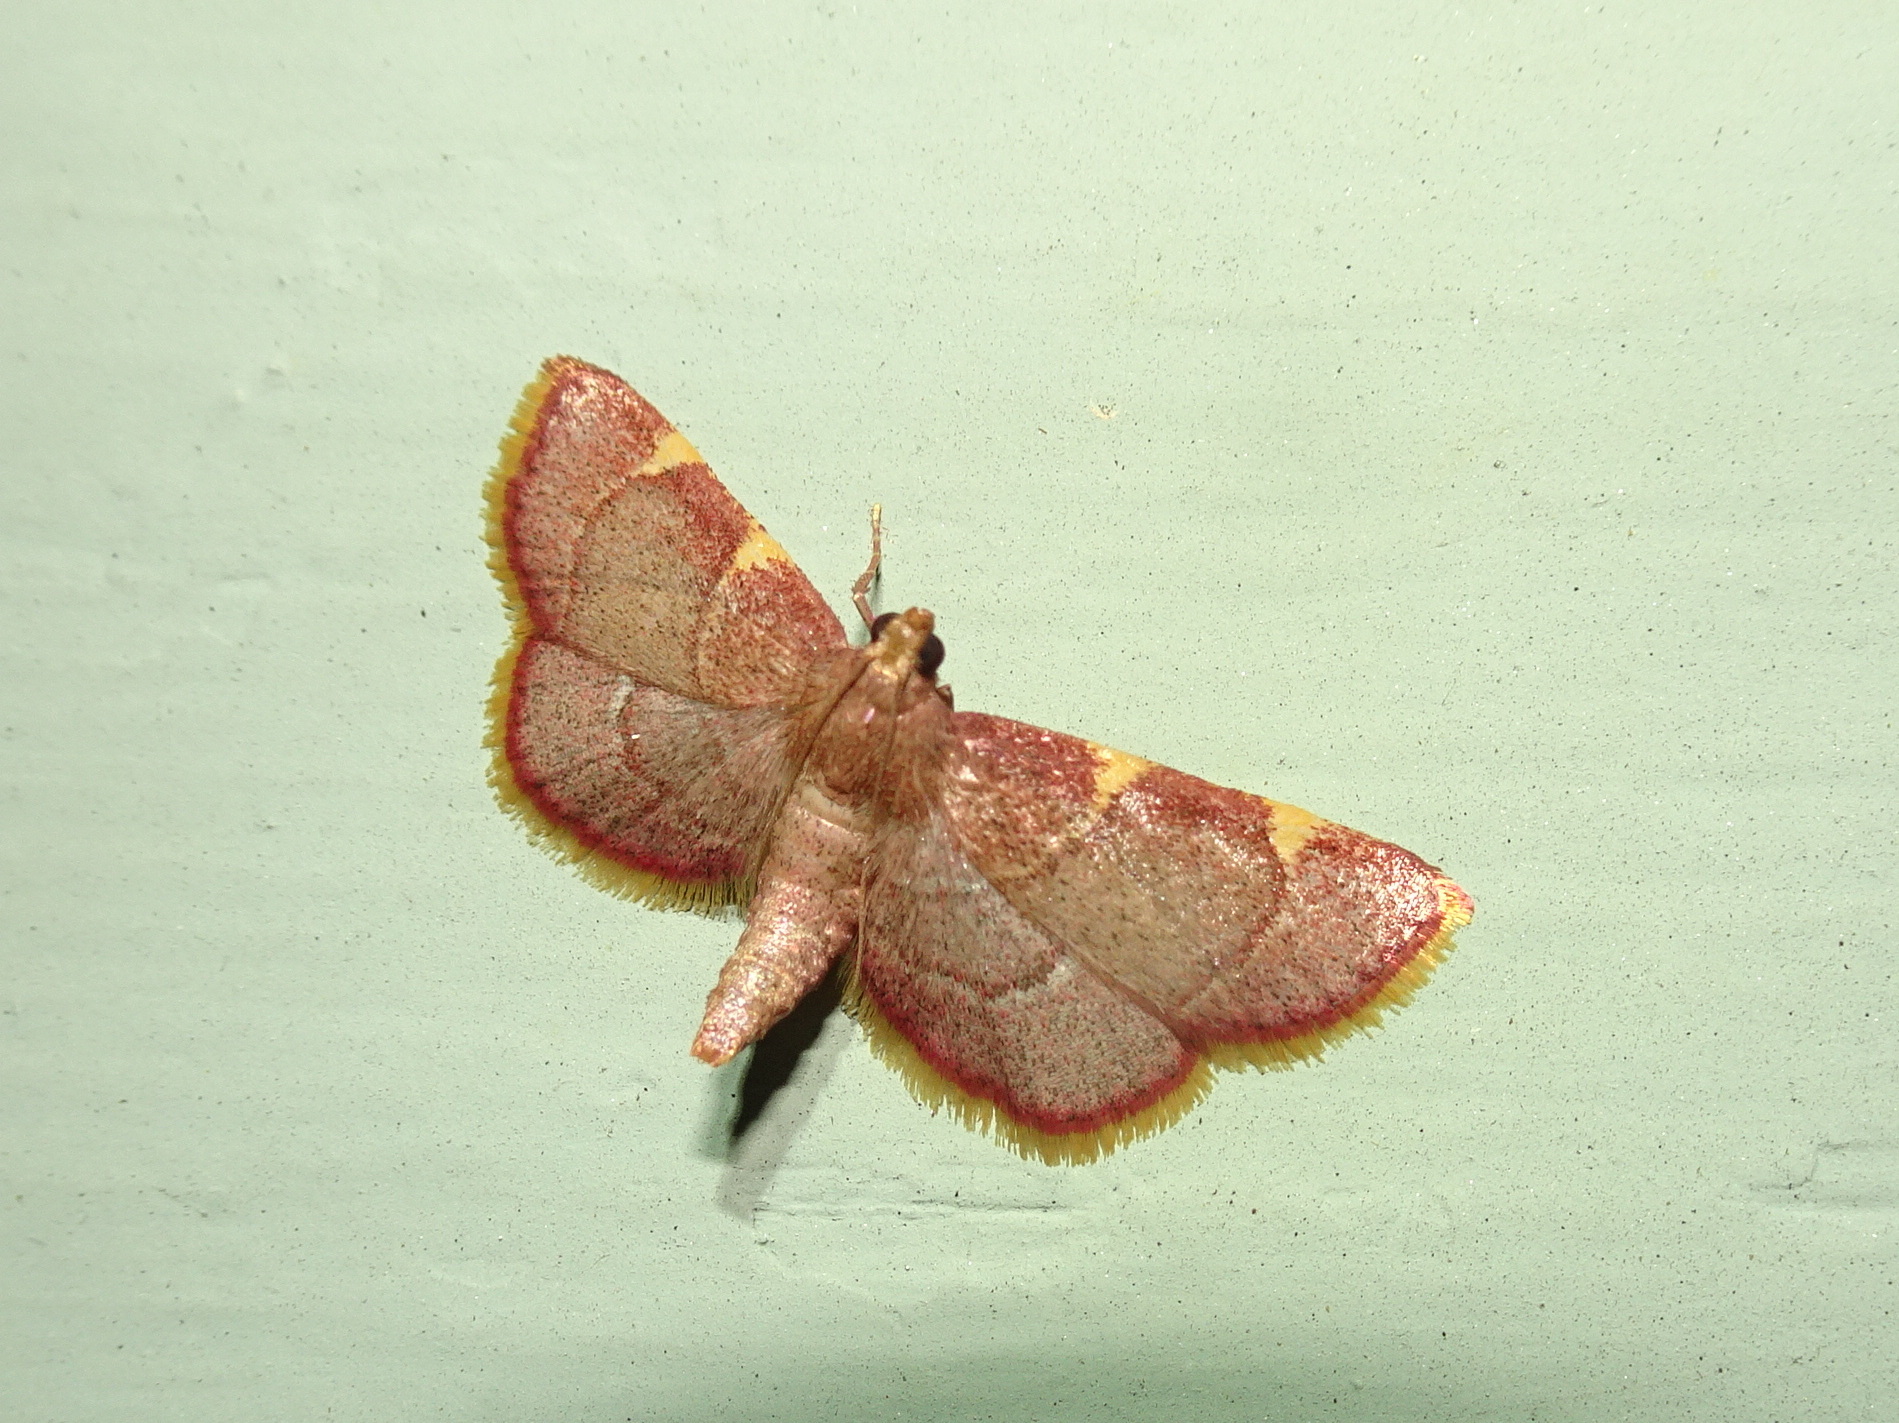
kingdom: Animalia
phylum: Arthropoda
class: Insecta
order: Lepidoptera
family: Pyralidae
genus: Hypsopygia
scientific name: Hypsopygia olinalis
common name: Yellow-fringed dolichomia moth
